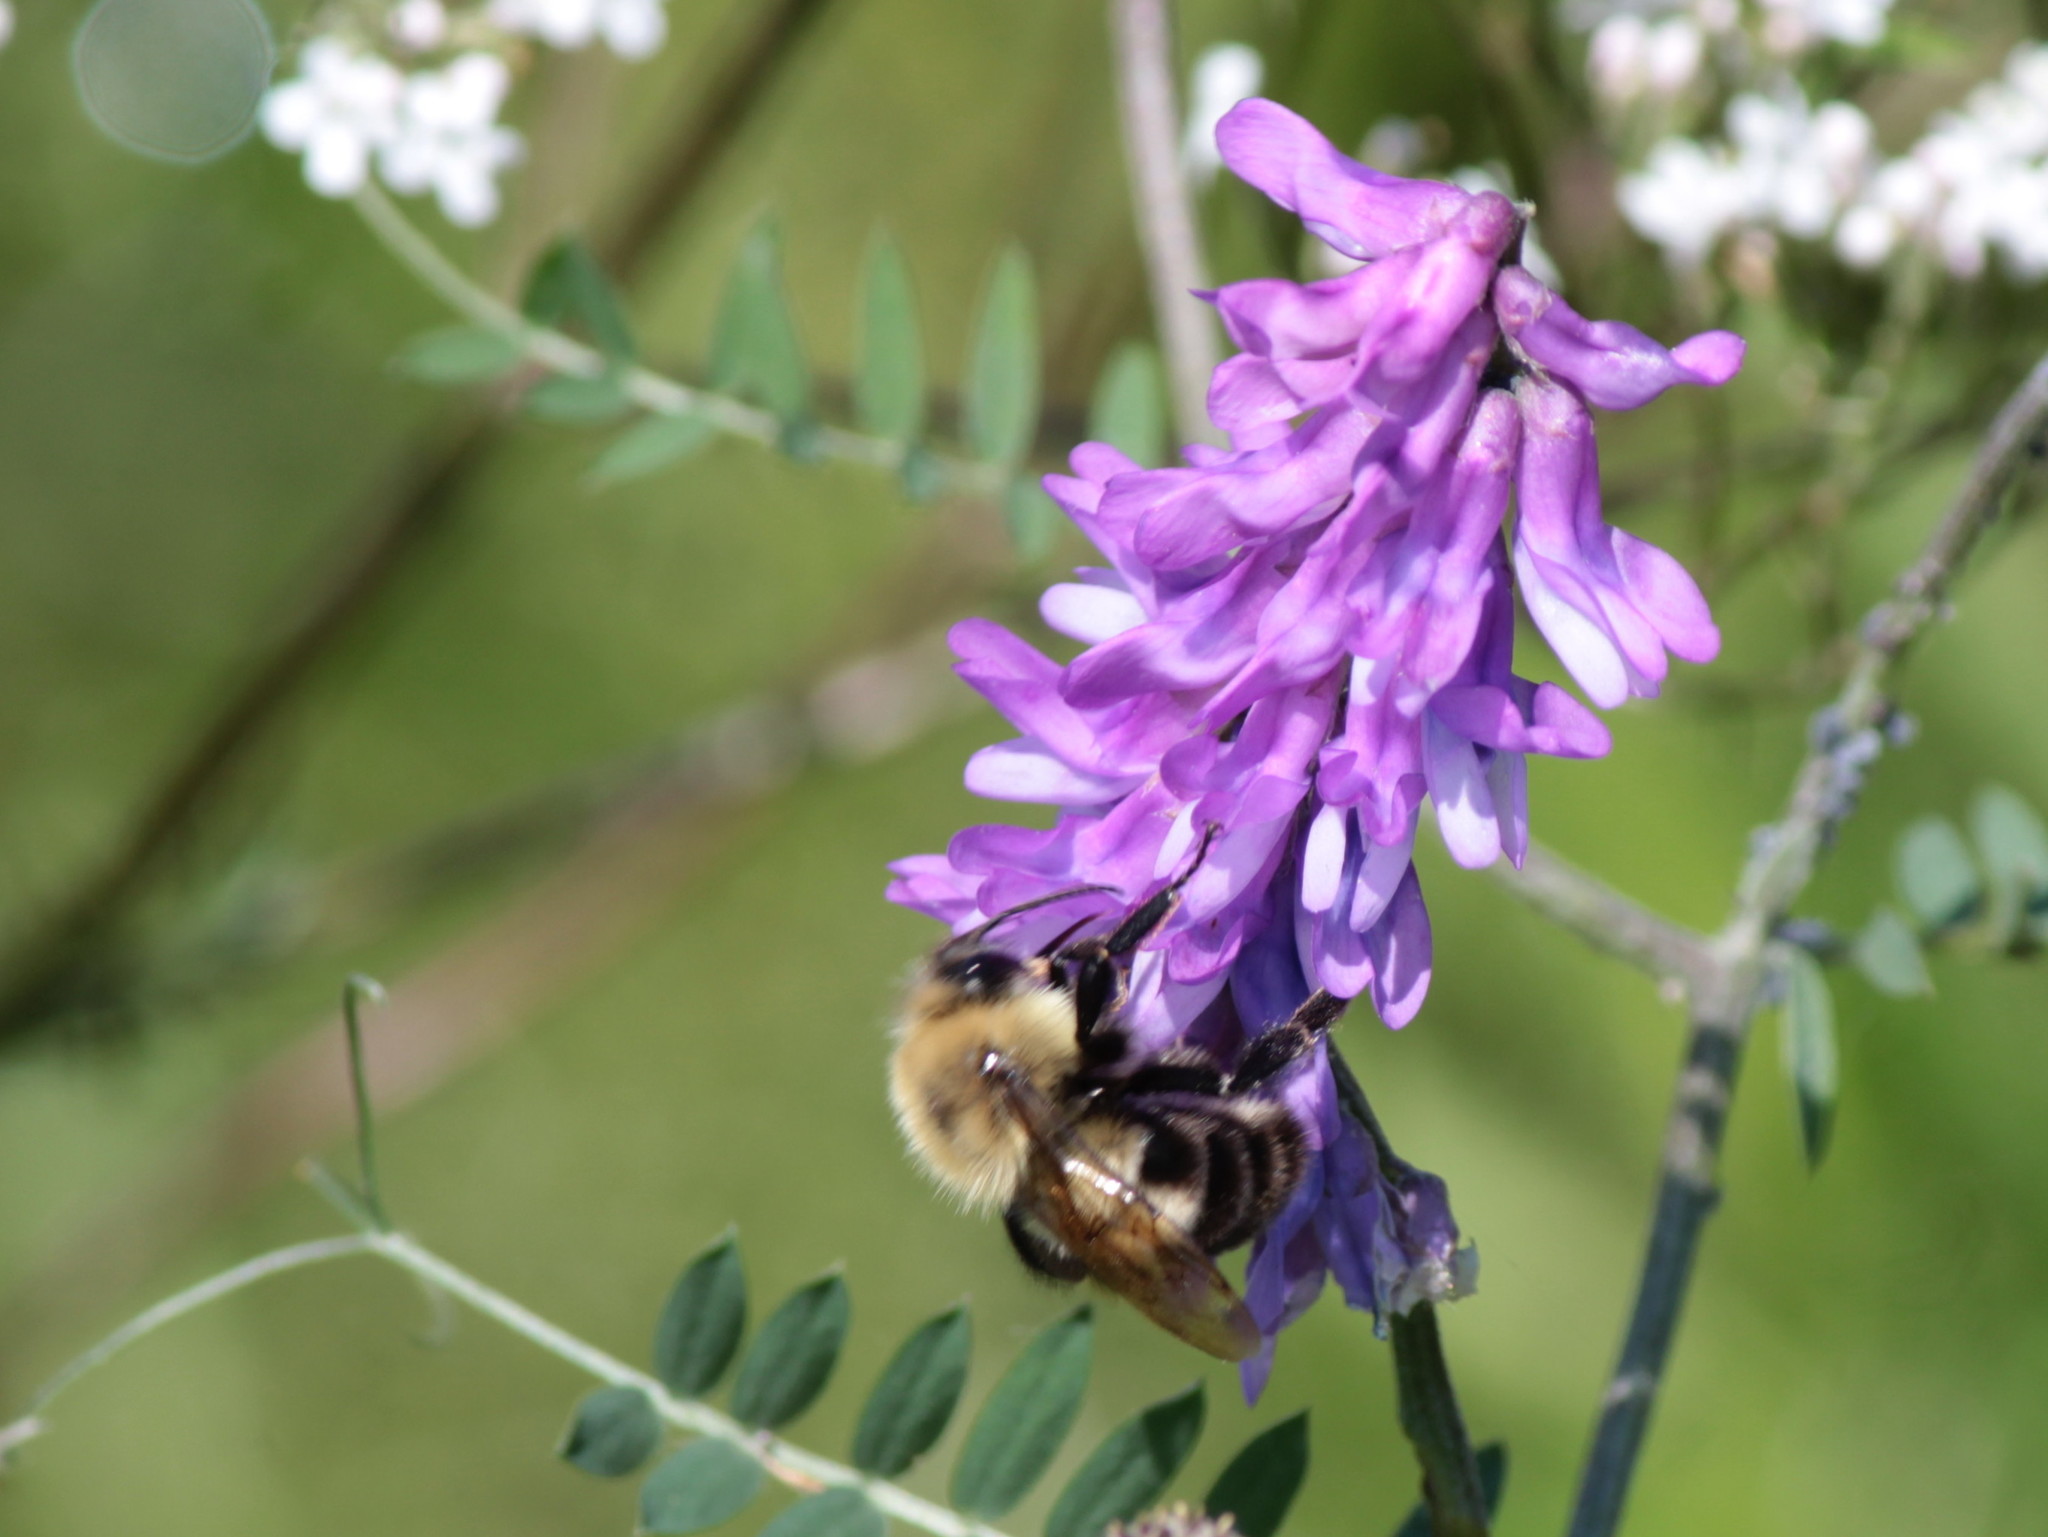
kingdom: Animalia
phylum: Arthropoda
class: Insecta
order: Hymenoptera
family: Apidae
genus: Bombus
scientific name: Bombus bimaculatus
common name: Two-spotted bumble bee
